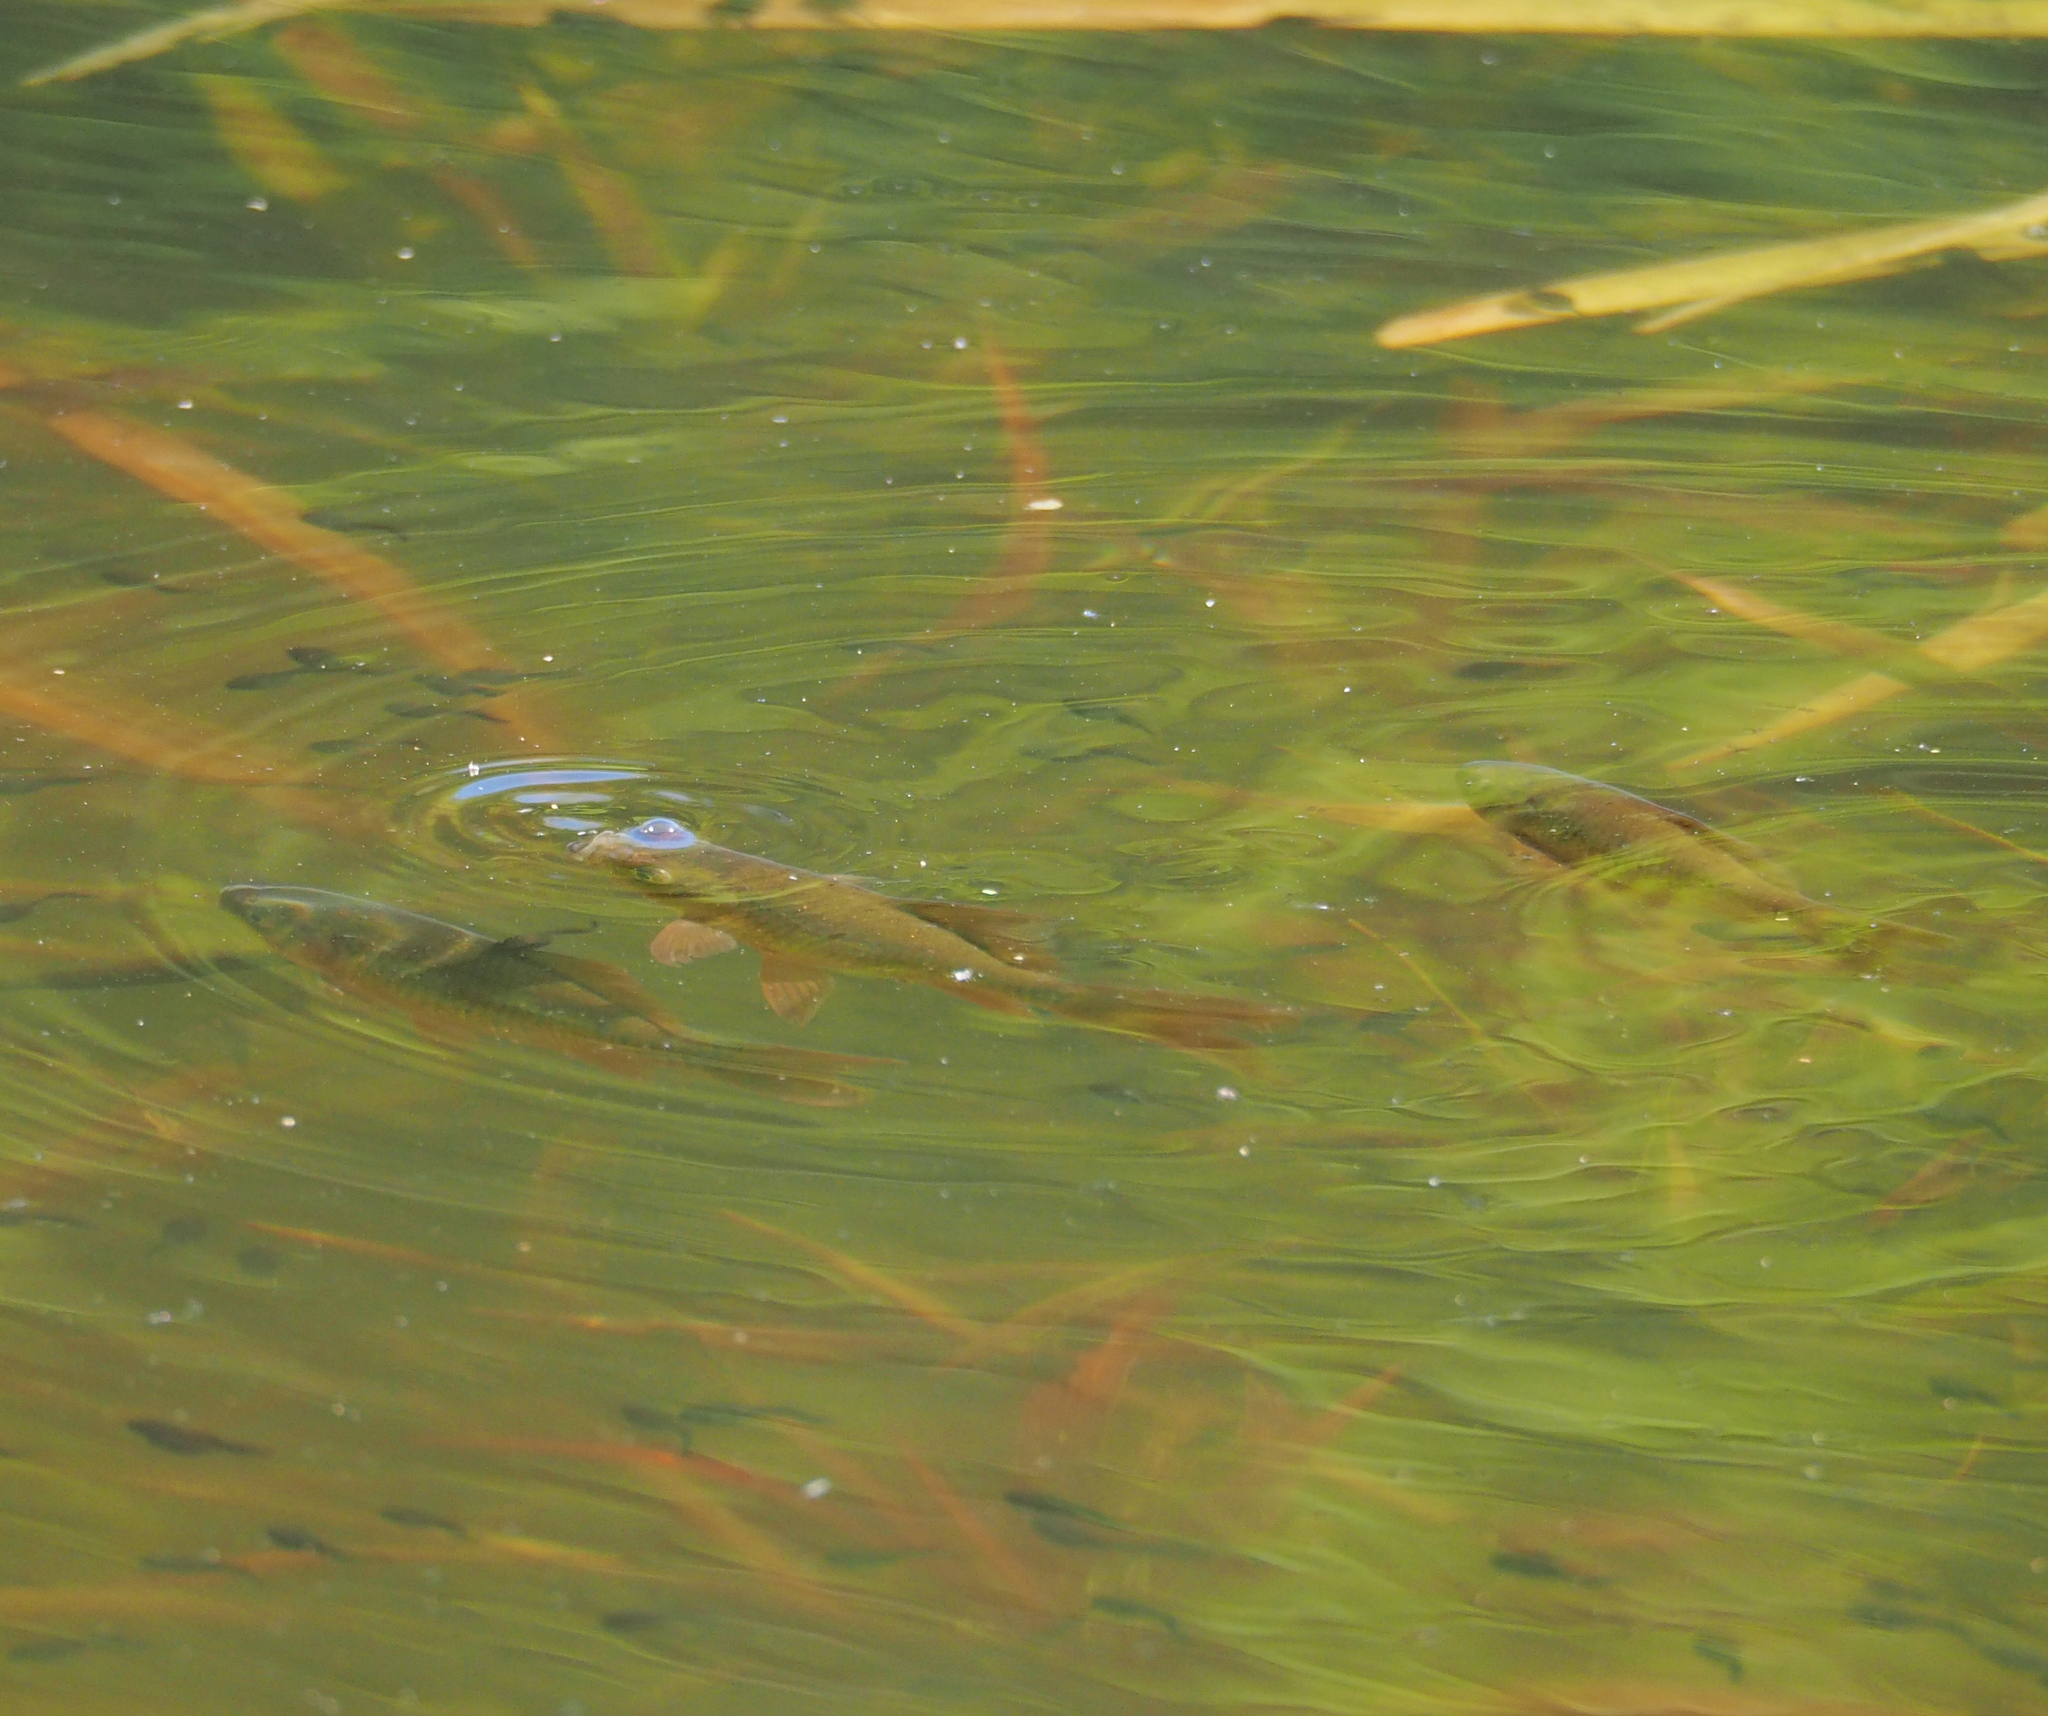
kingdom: Animalia
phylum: Chordata
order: Cypriniformes
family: Cyprinidae
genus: Carassius
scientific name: Carassius auratus
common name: Goldfish
